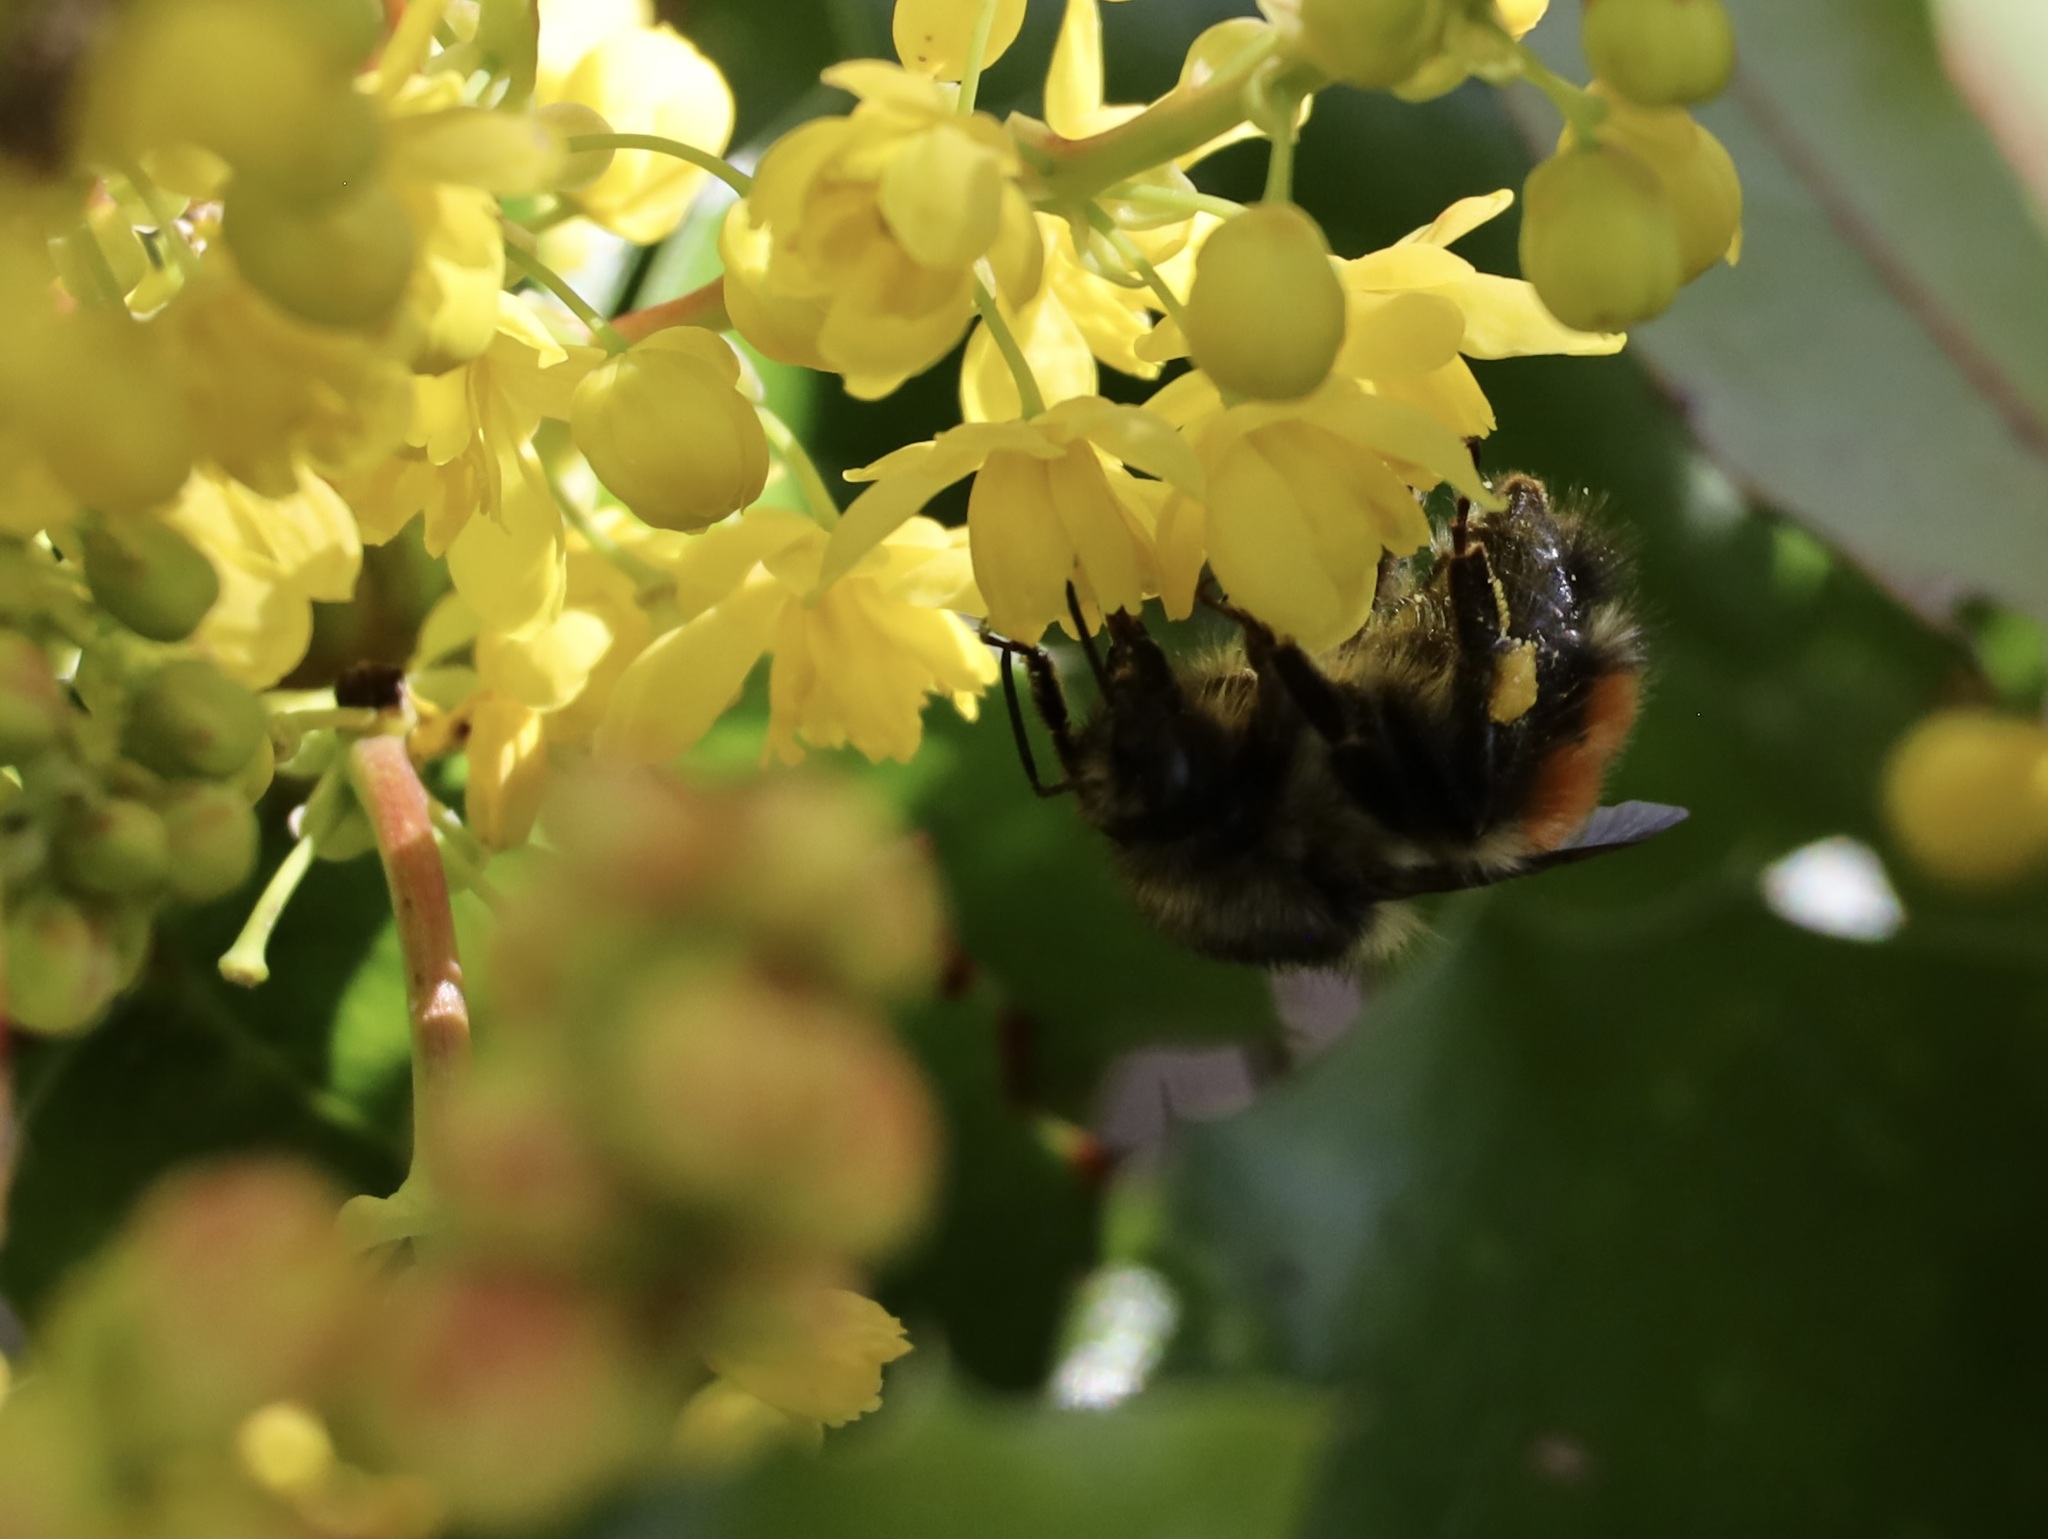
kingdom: Animalia
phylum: Arthropoda
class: Insecta
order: Hymenoptera
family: Apidae
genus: Bombus
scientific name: Bombus melanopygus
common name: Black tail bumble bee
